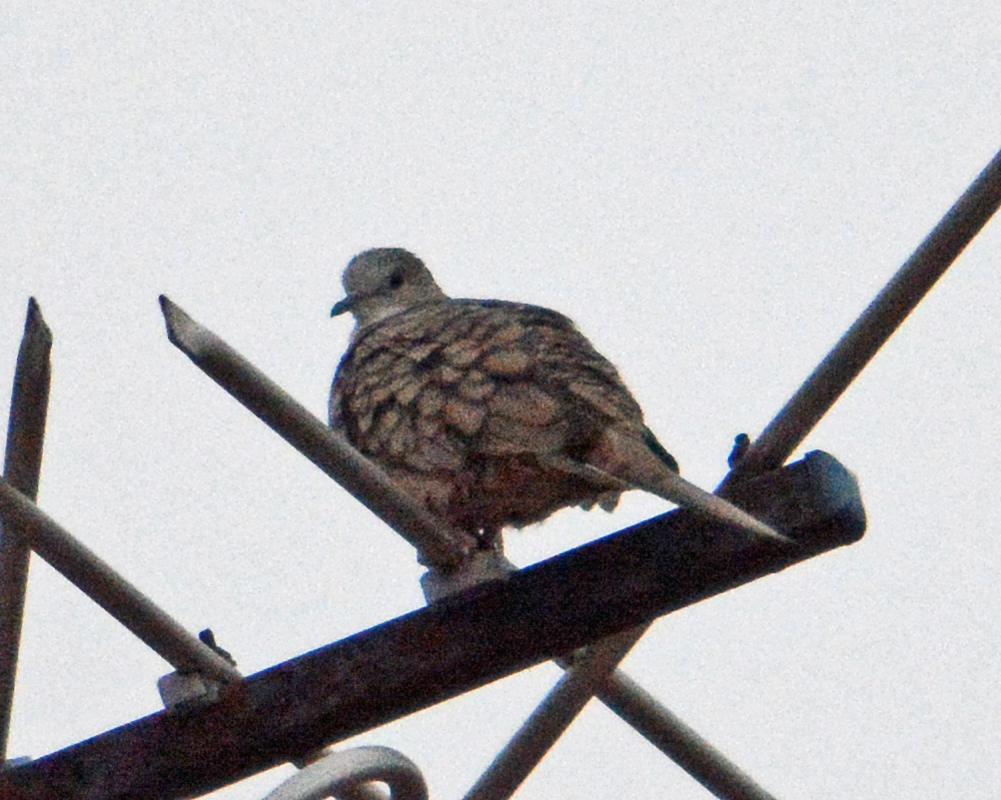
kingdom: Animalia
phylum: Chordata
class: Aves
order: Columbiformes
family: Columbidae
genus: Columbina
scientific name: Columbina inca
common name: Inca dove
